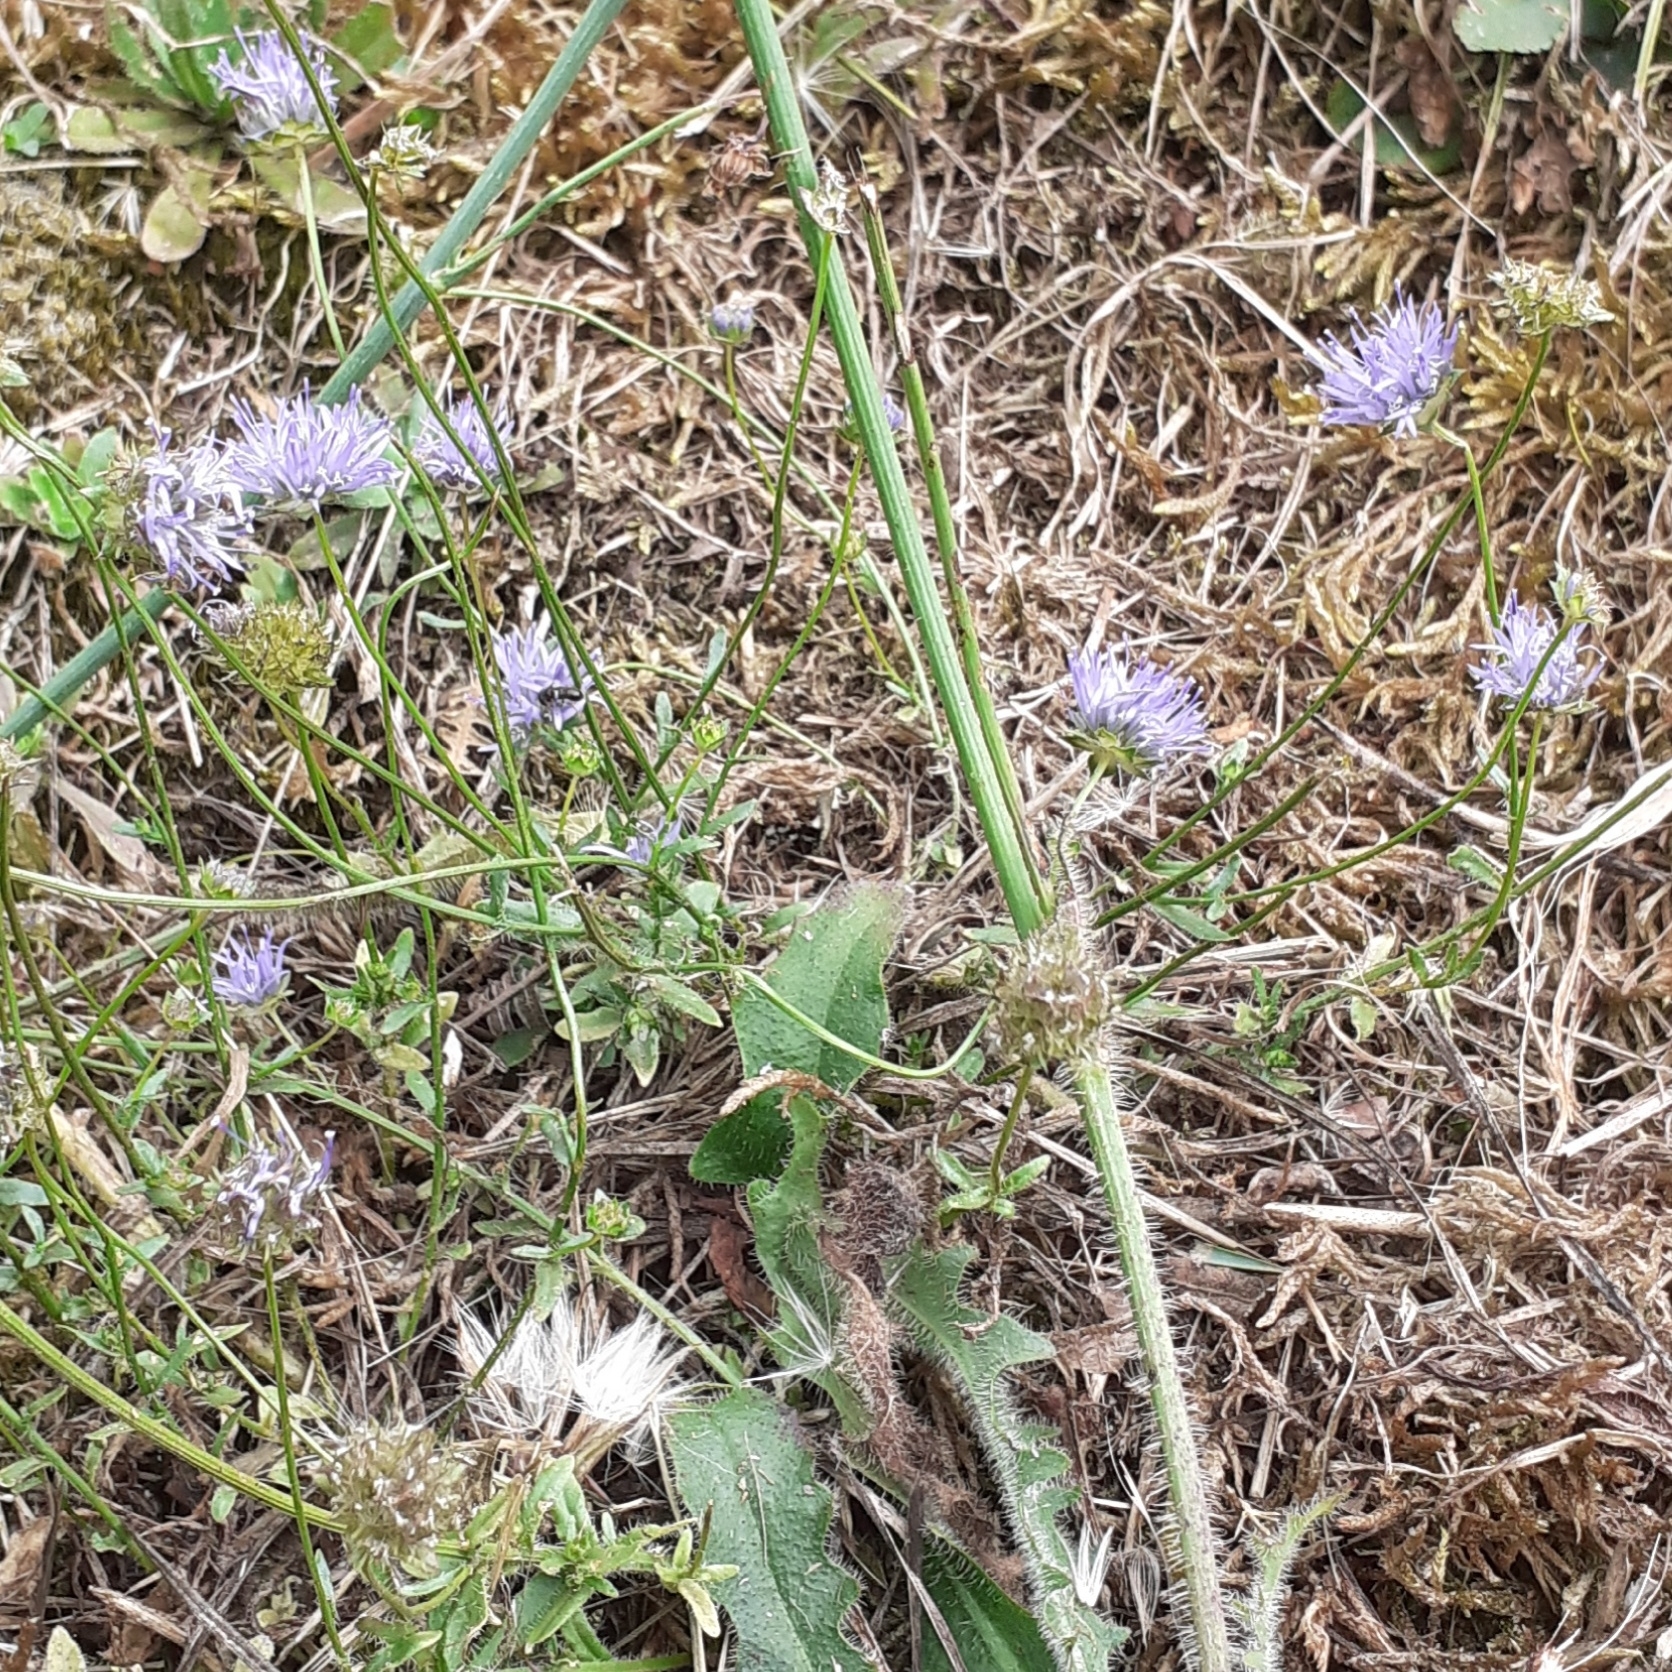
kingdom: Plantae
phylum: Tracheophyta
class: Magnoliopsida
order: Asterales
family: Campanulaceae
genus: Jasione
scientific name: Jasione montana
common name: Sheep's-bit
